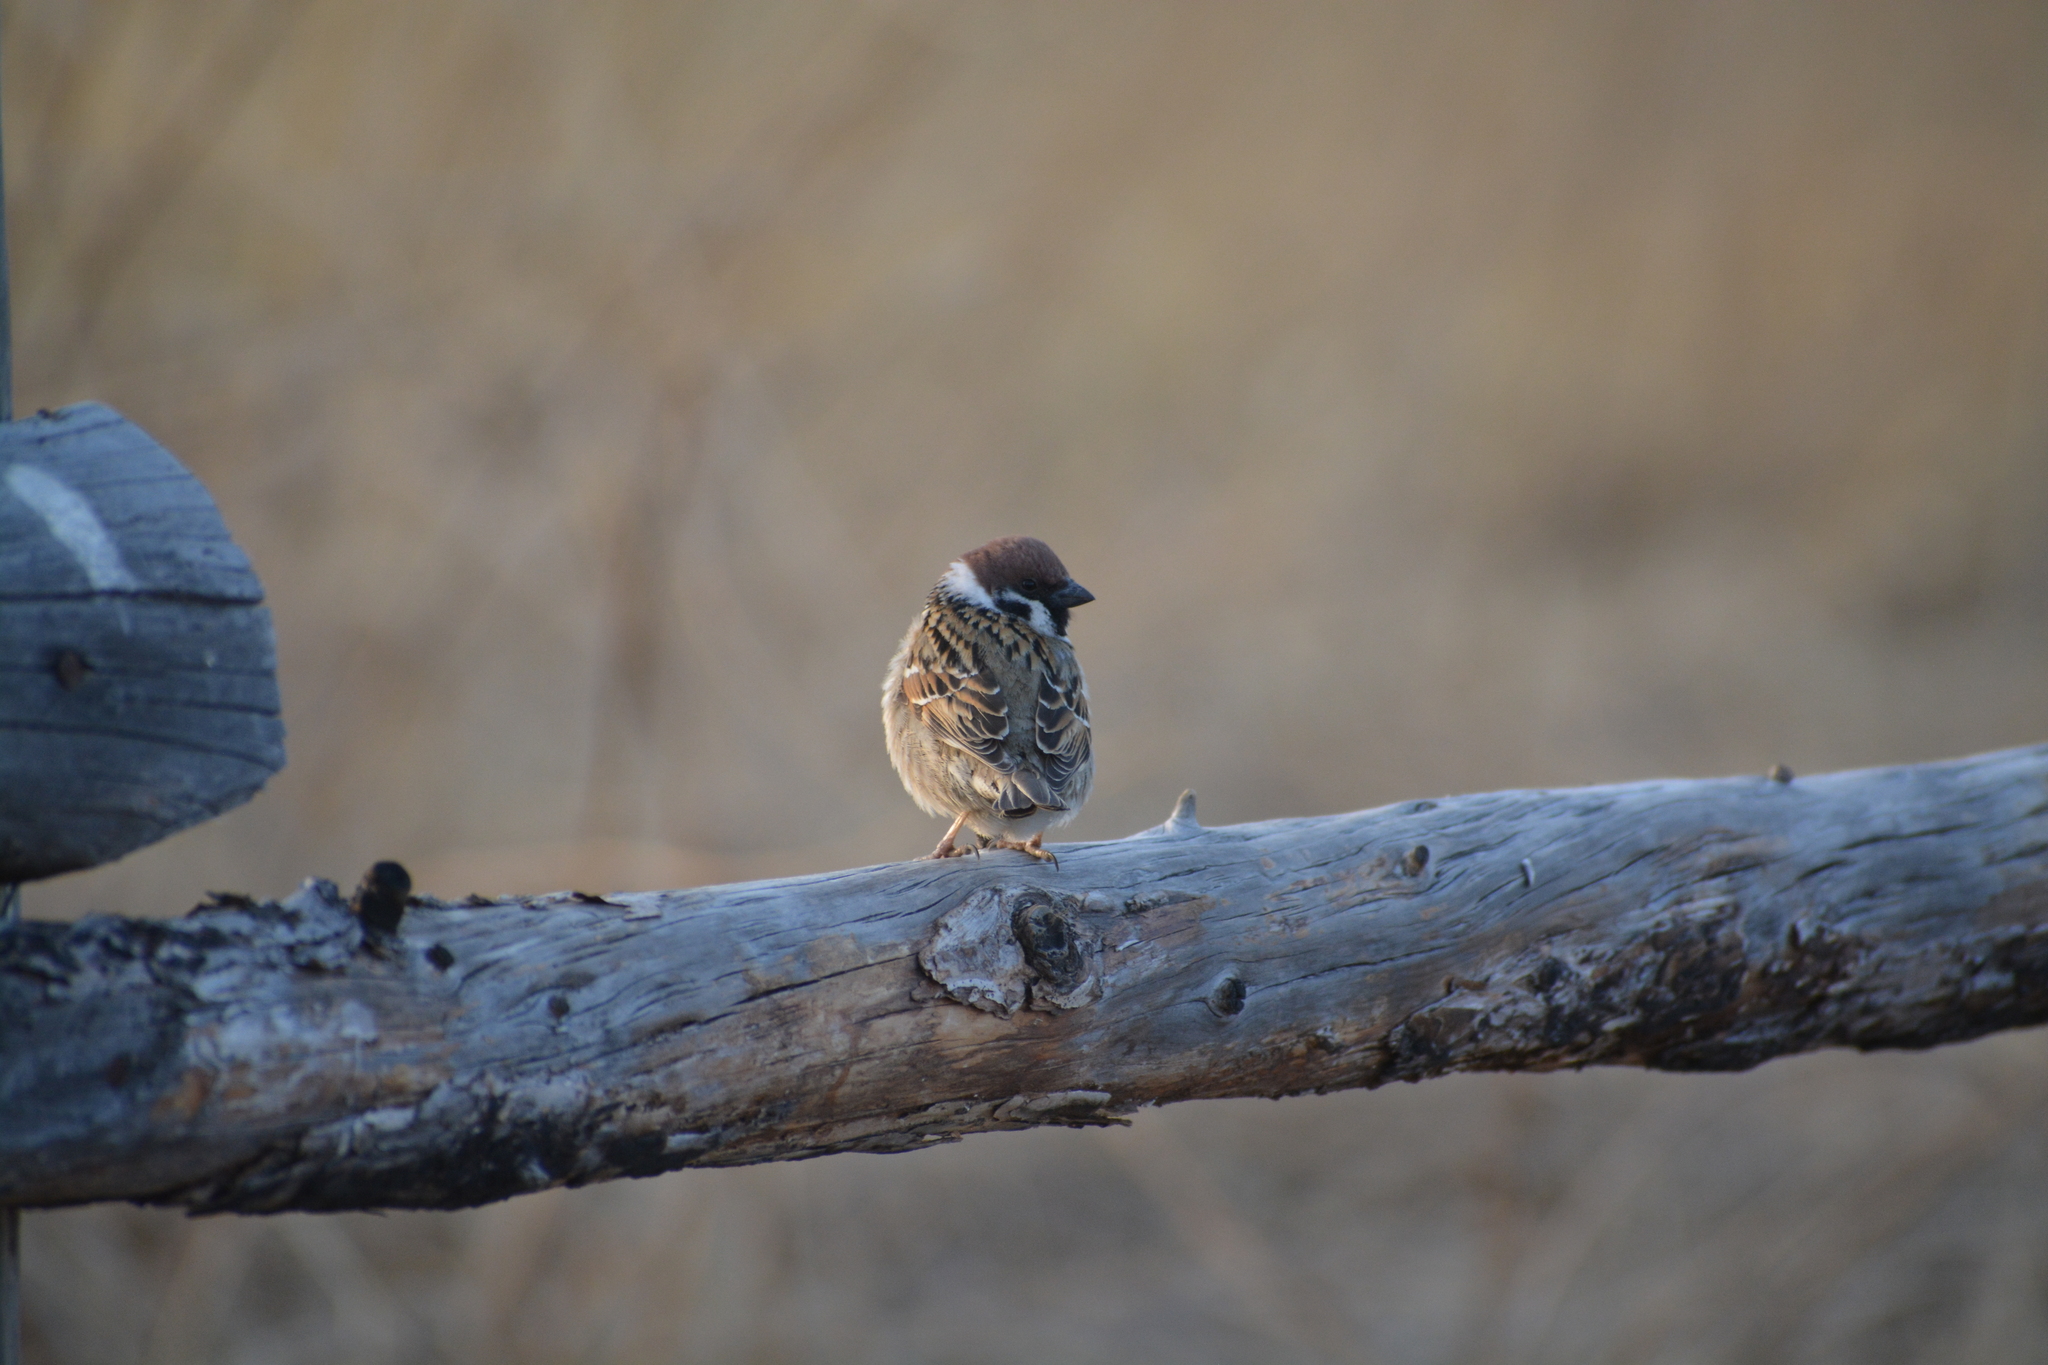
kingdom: Animalia
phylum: Chordata
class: Aves
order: Passeriformes
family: Passeridae
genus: Passer
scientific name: Passer montanus
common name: Eurasian tree sparrow
